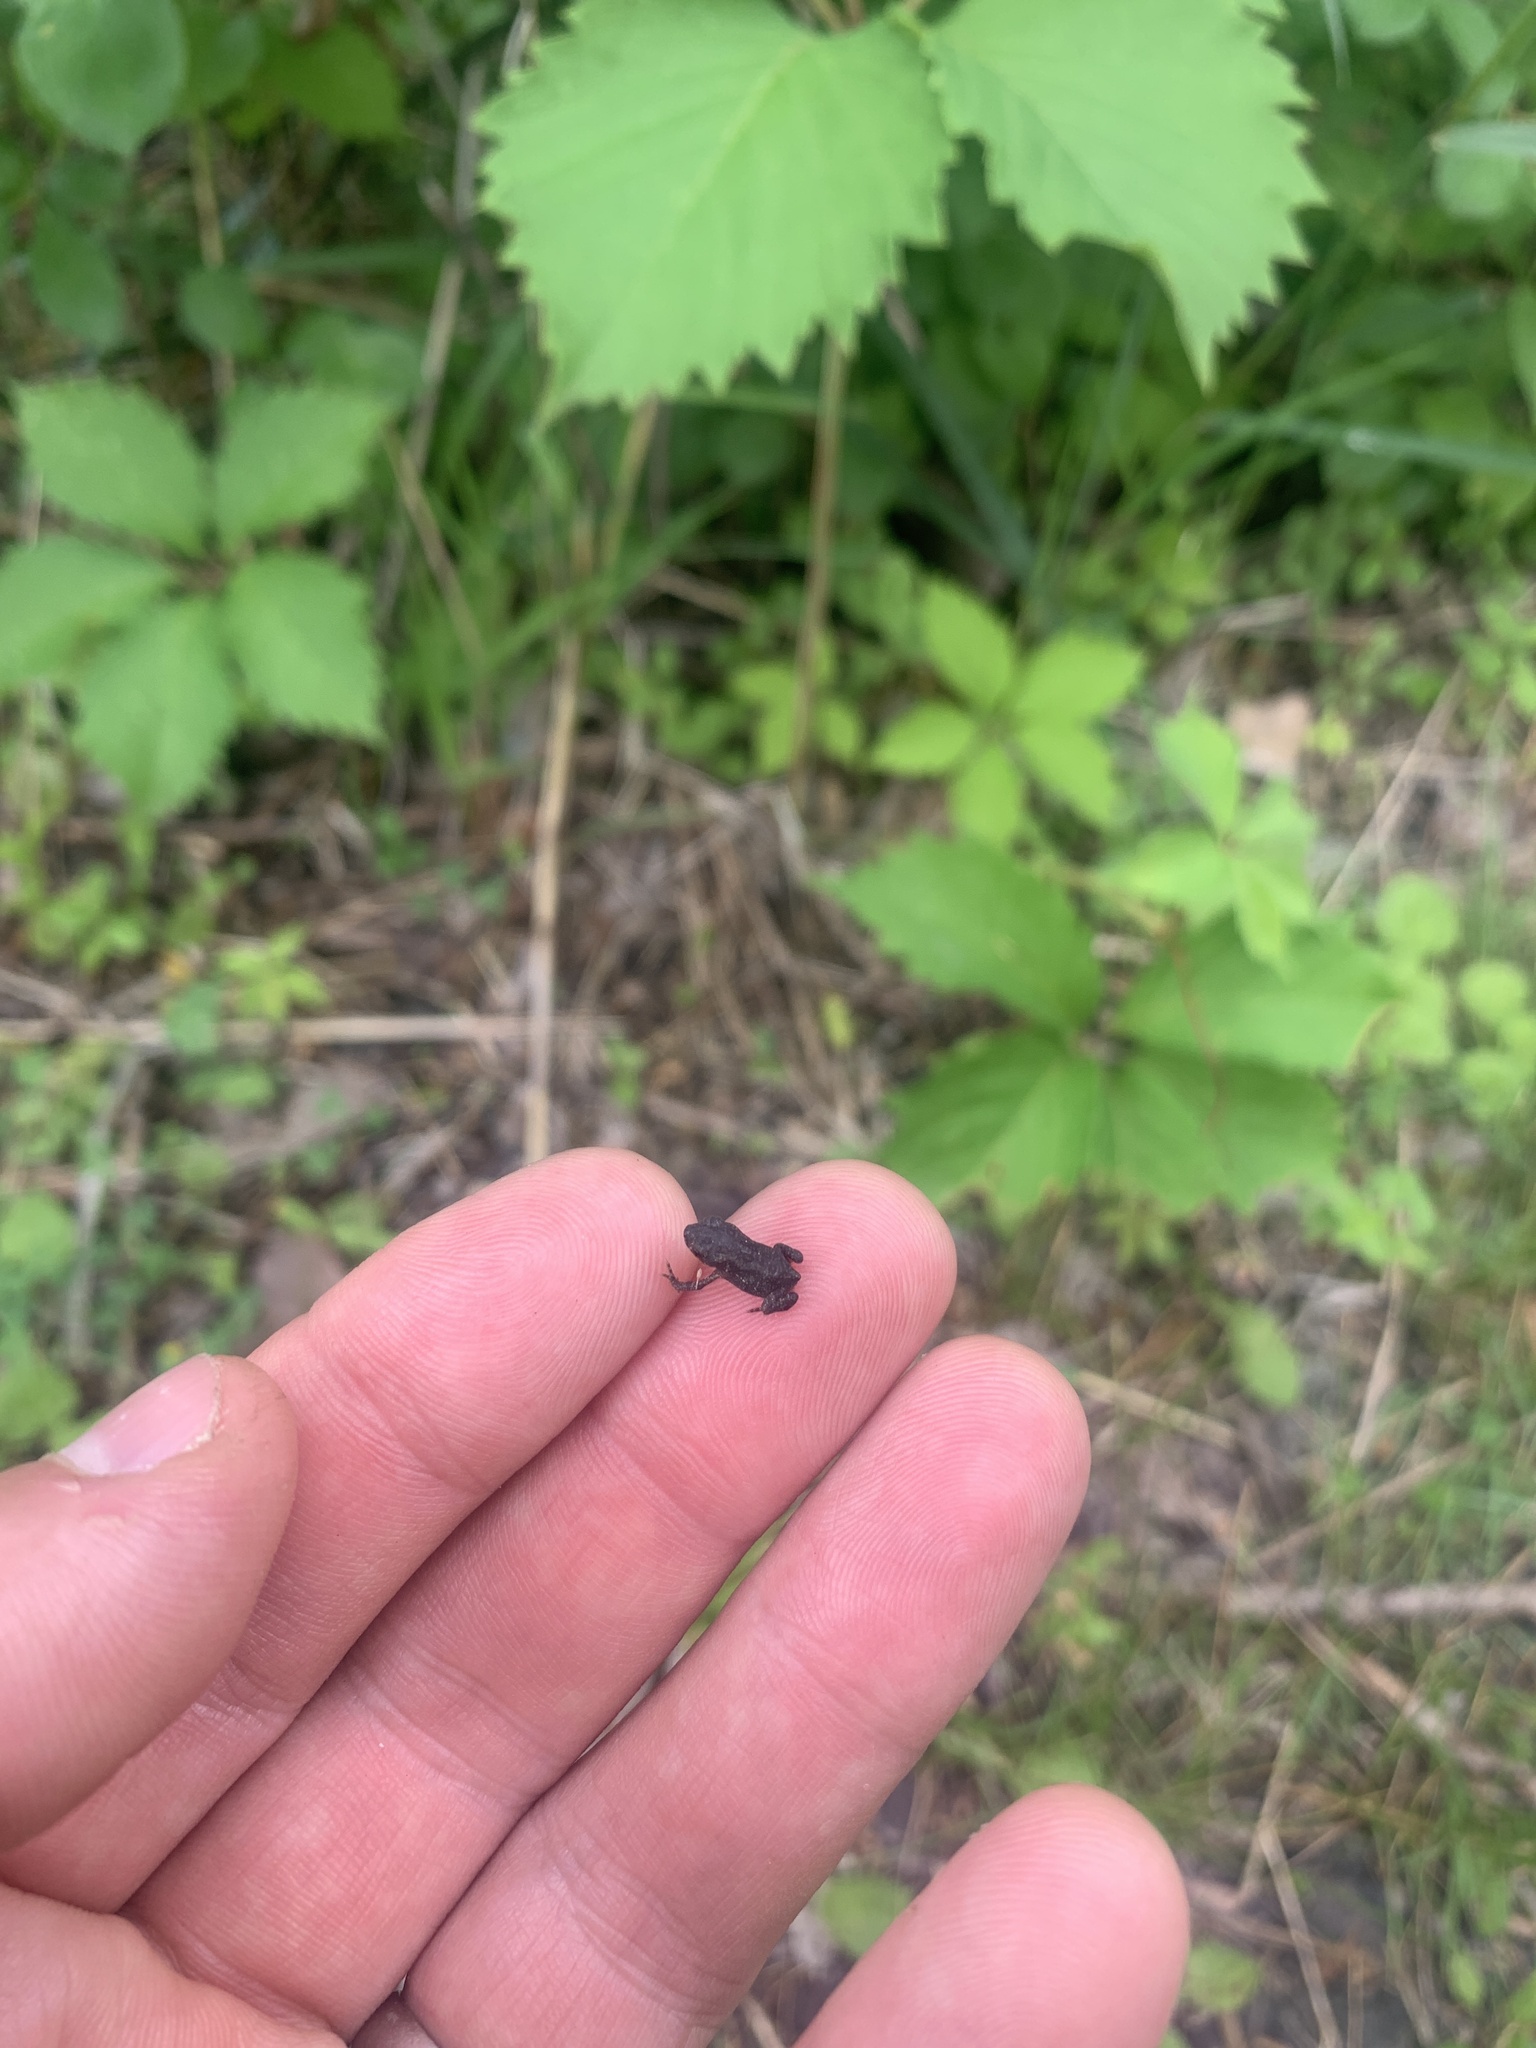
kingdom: Animalia
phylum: Chordata
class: Amphibia
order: Anura
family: Bufonidae
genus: Anaxyrus
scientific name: Anaxyrus americanus
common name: American toad
